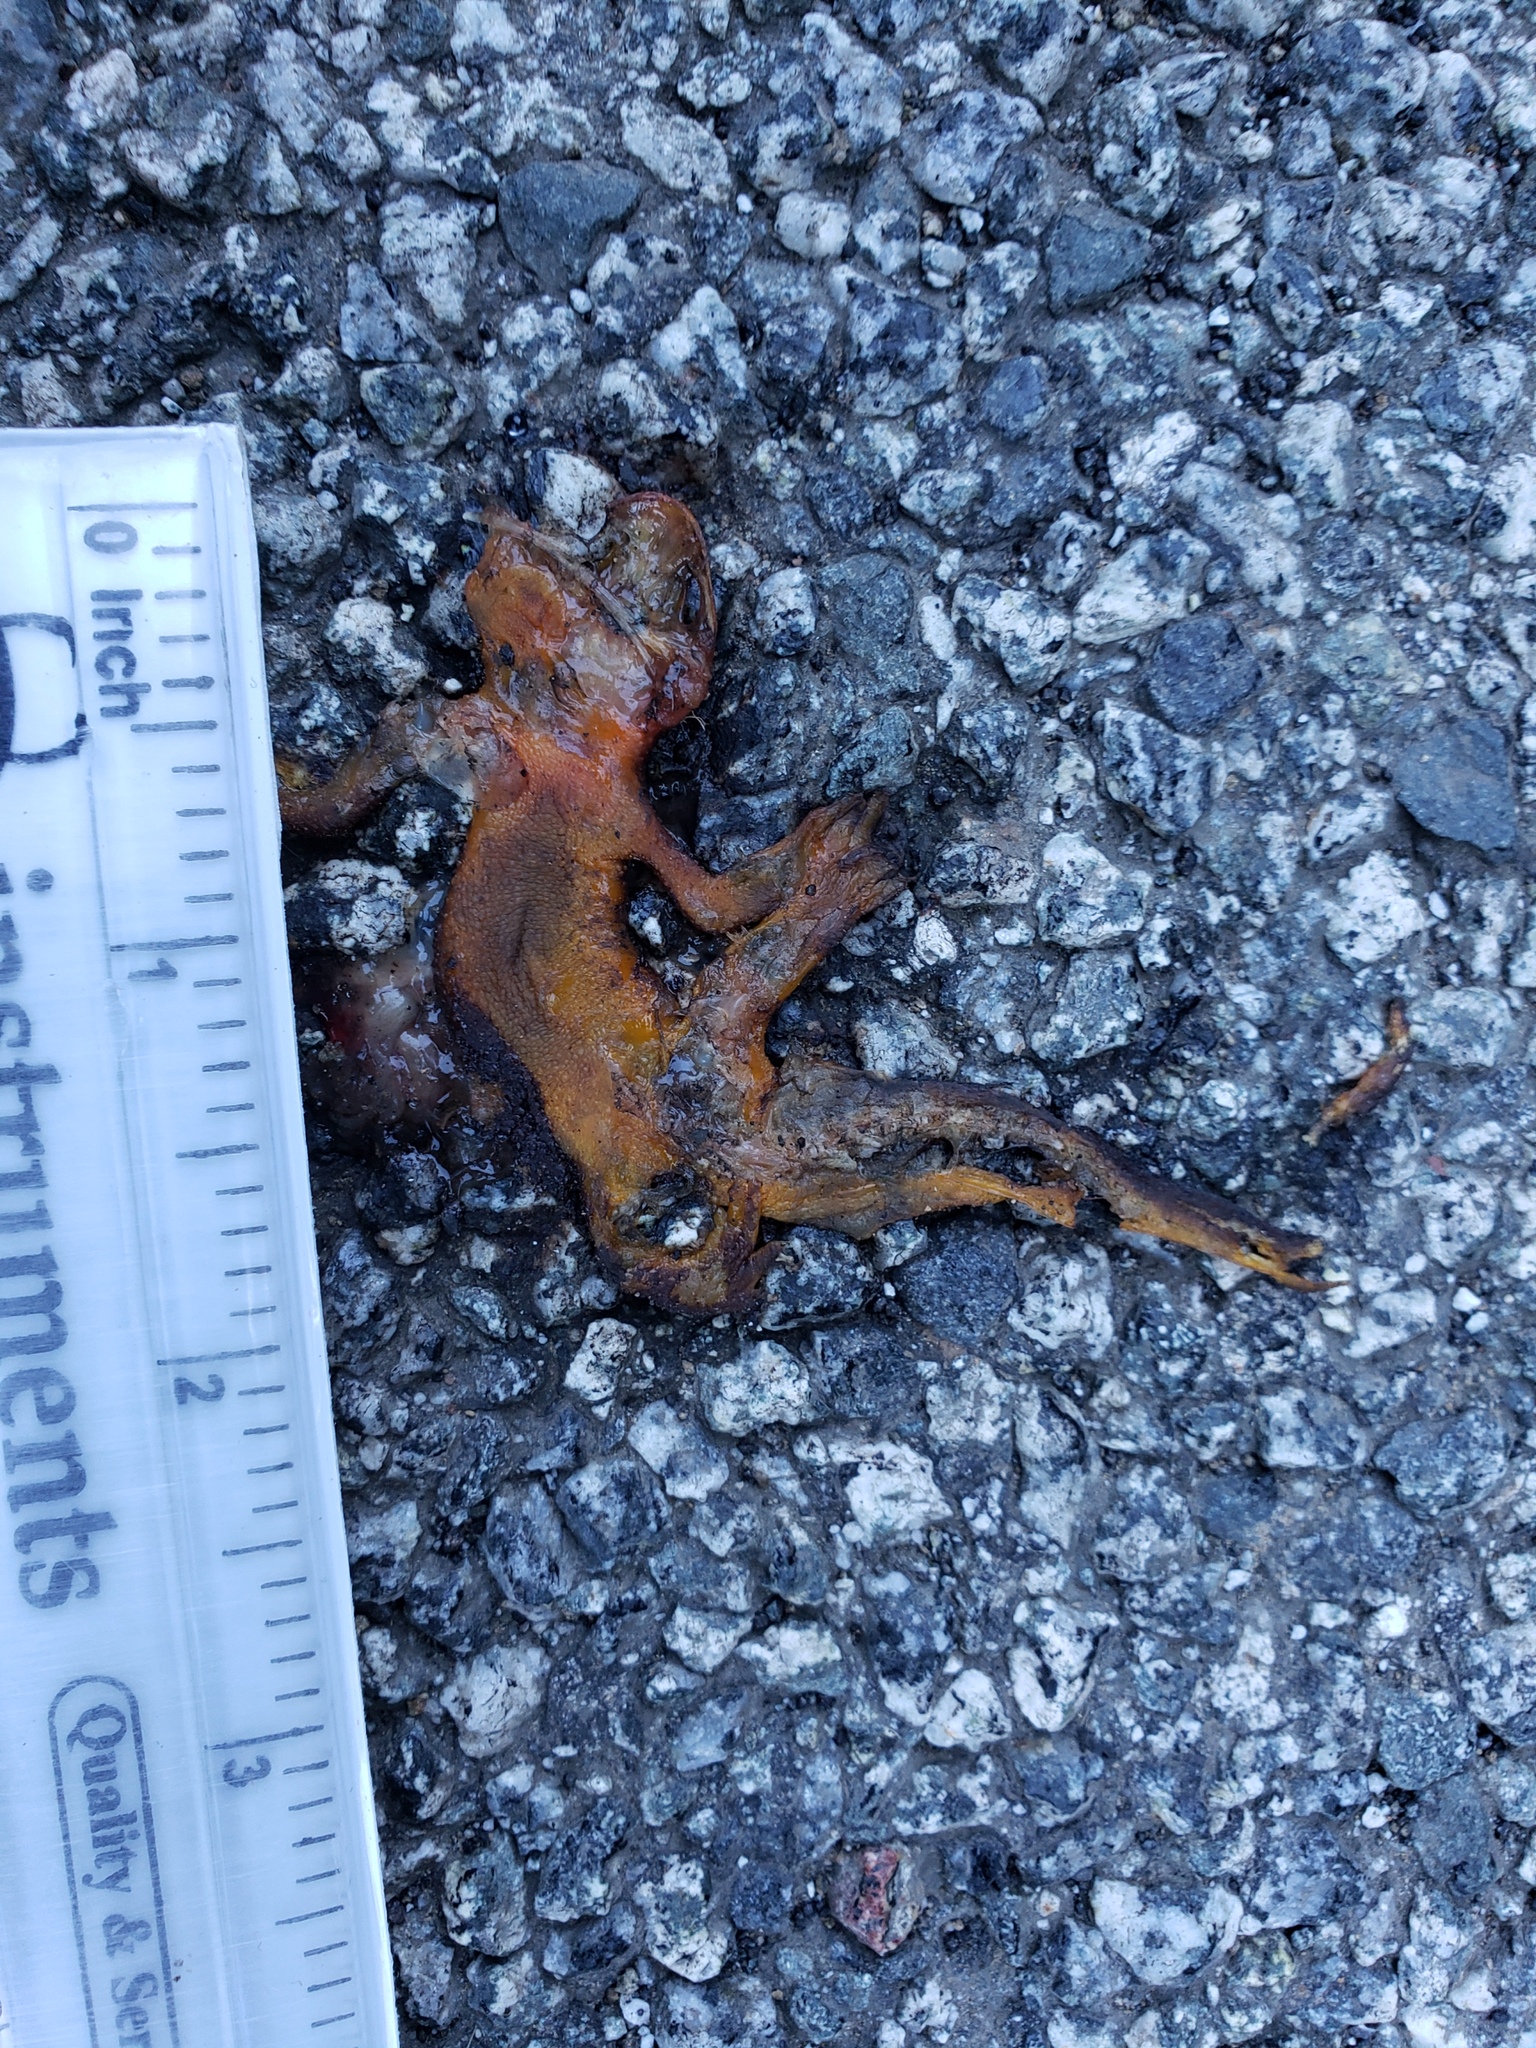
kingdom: Animalia
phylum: Chordata
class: Amphibia
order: Caudata
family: Salamandridae
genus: Taricha
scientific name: Taricha
